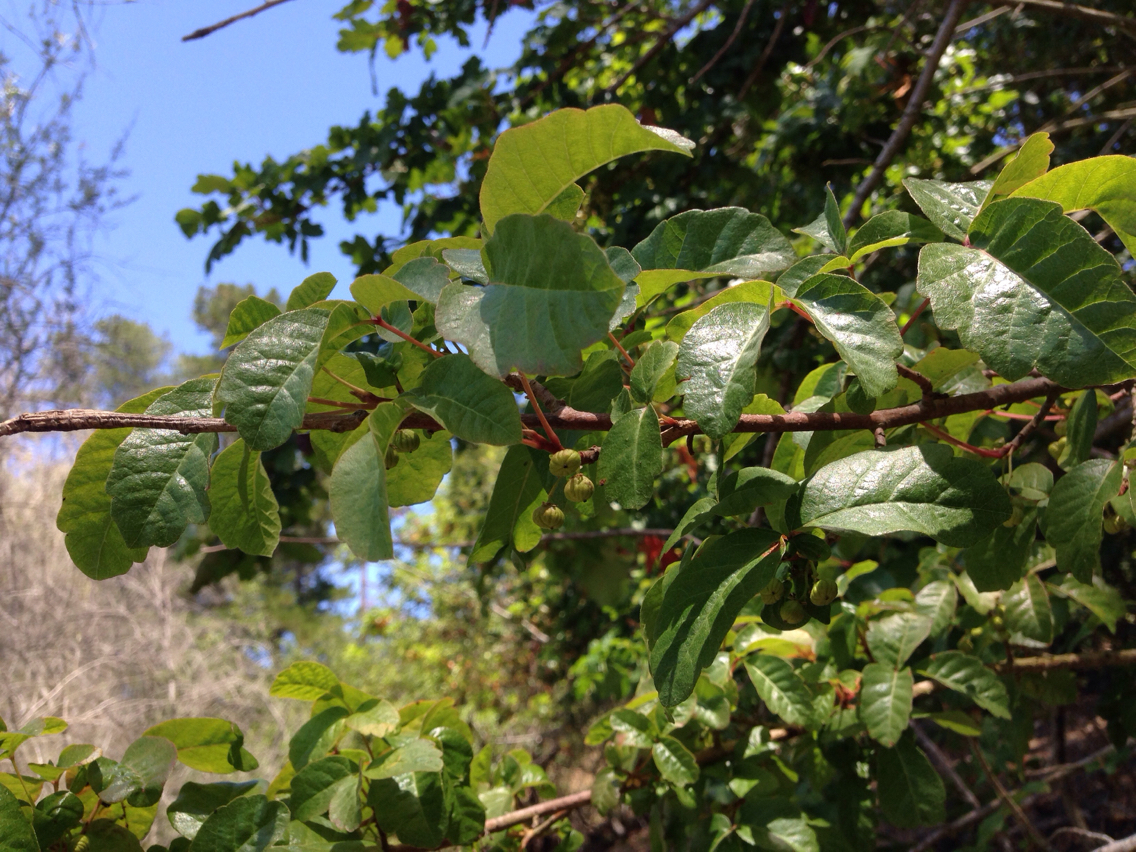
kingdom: Plantae
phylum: Tracheophyta
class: Magnoliopsida
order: Sapindales
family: Anacardiaceae
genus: Toxicodendron
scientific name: Toxicodendron diversilobum
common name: Pacific poison-oak
